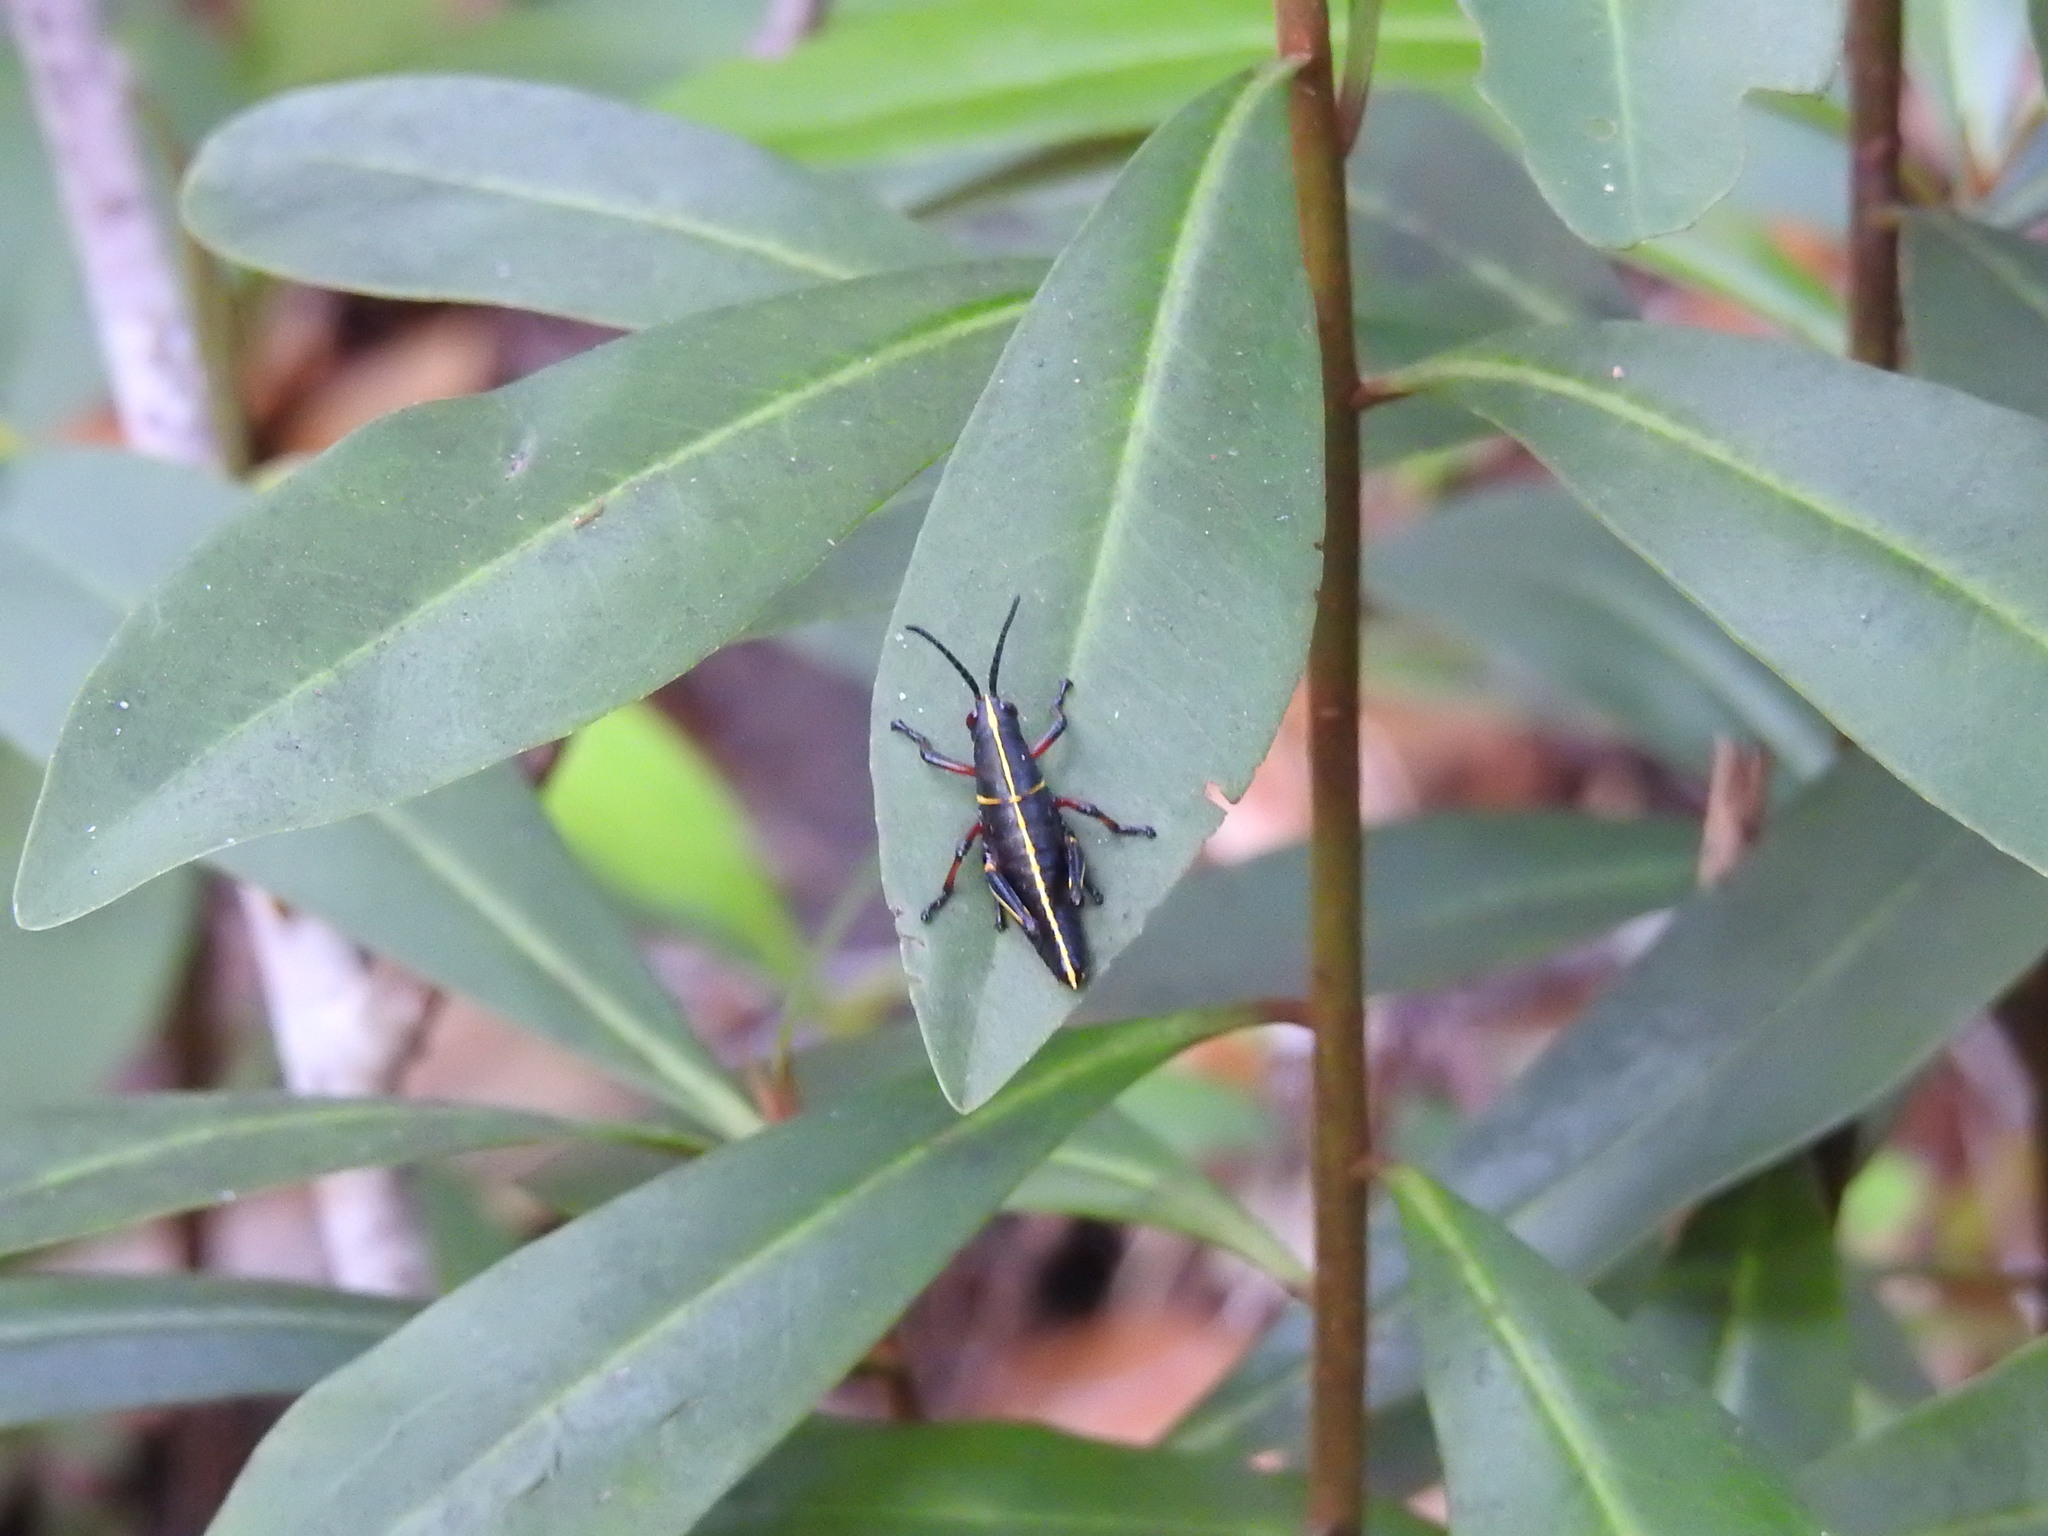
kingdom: Animalia
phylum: Arthropoda
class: Insecta
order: Orthoptera
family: Romaleidae
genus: Romalea
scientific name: Romalea microptera
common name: Eastern lubber grasshopper
